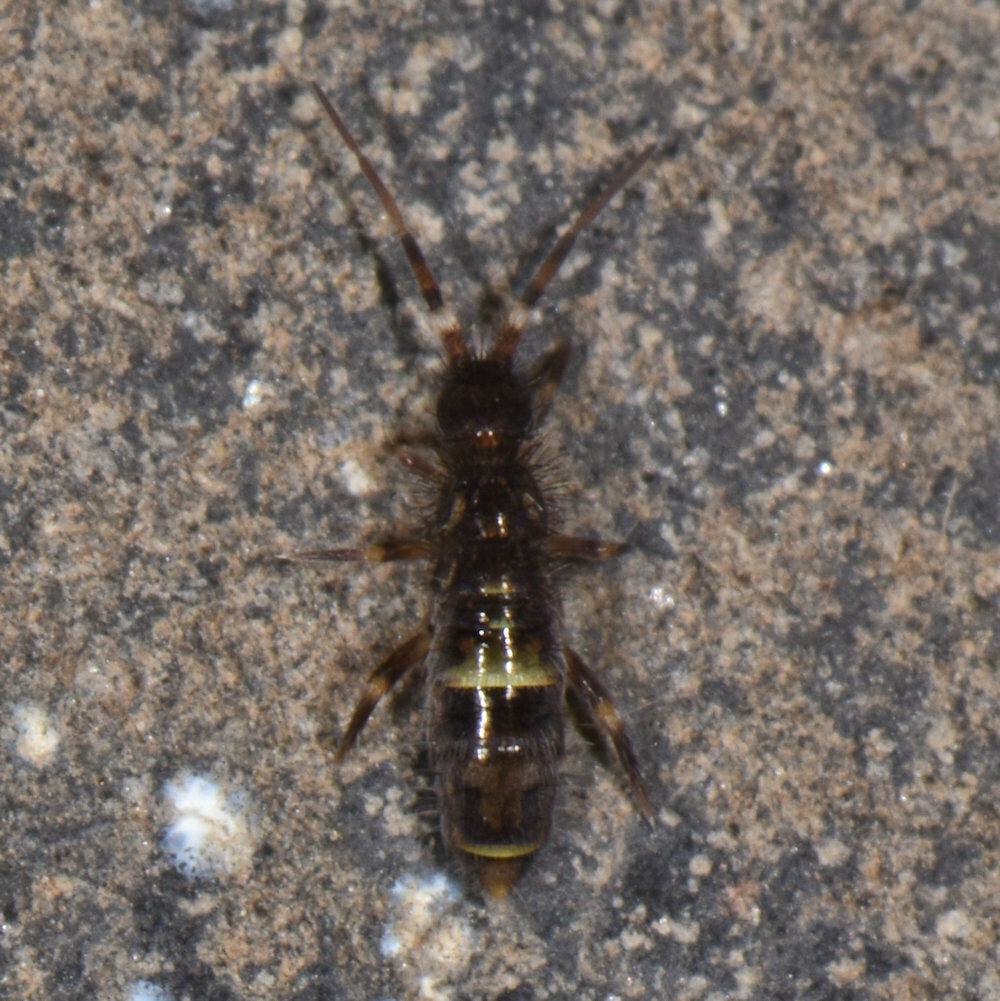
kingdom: Animalia
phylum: Arthropoda
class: Collembola
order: Entomobryomorpha
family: Orchesellidae
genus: Orchesella
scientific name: Orchesella cincta
